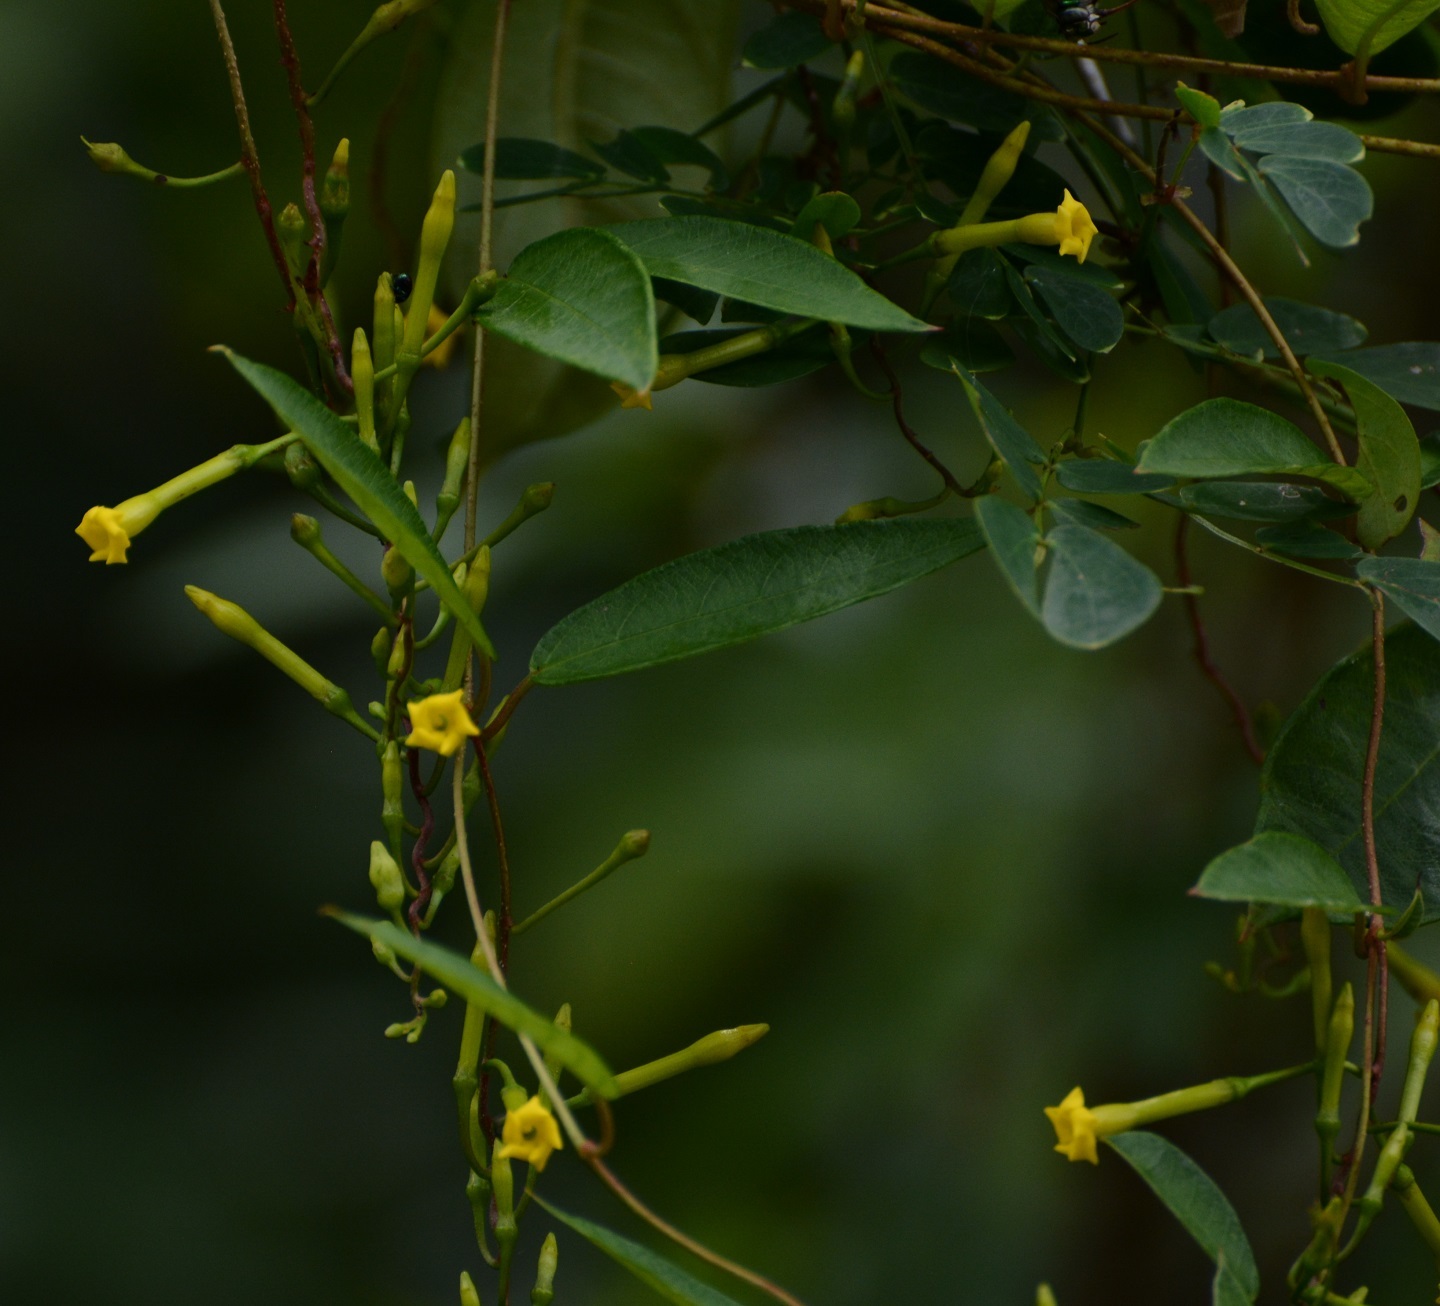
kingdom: Plantae
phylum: Tracheophyta
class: Magnoliopsida
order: Gentianales
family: Apocynaceae
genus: Mandevilla
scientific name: Mandevilla tubiflora
